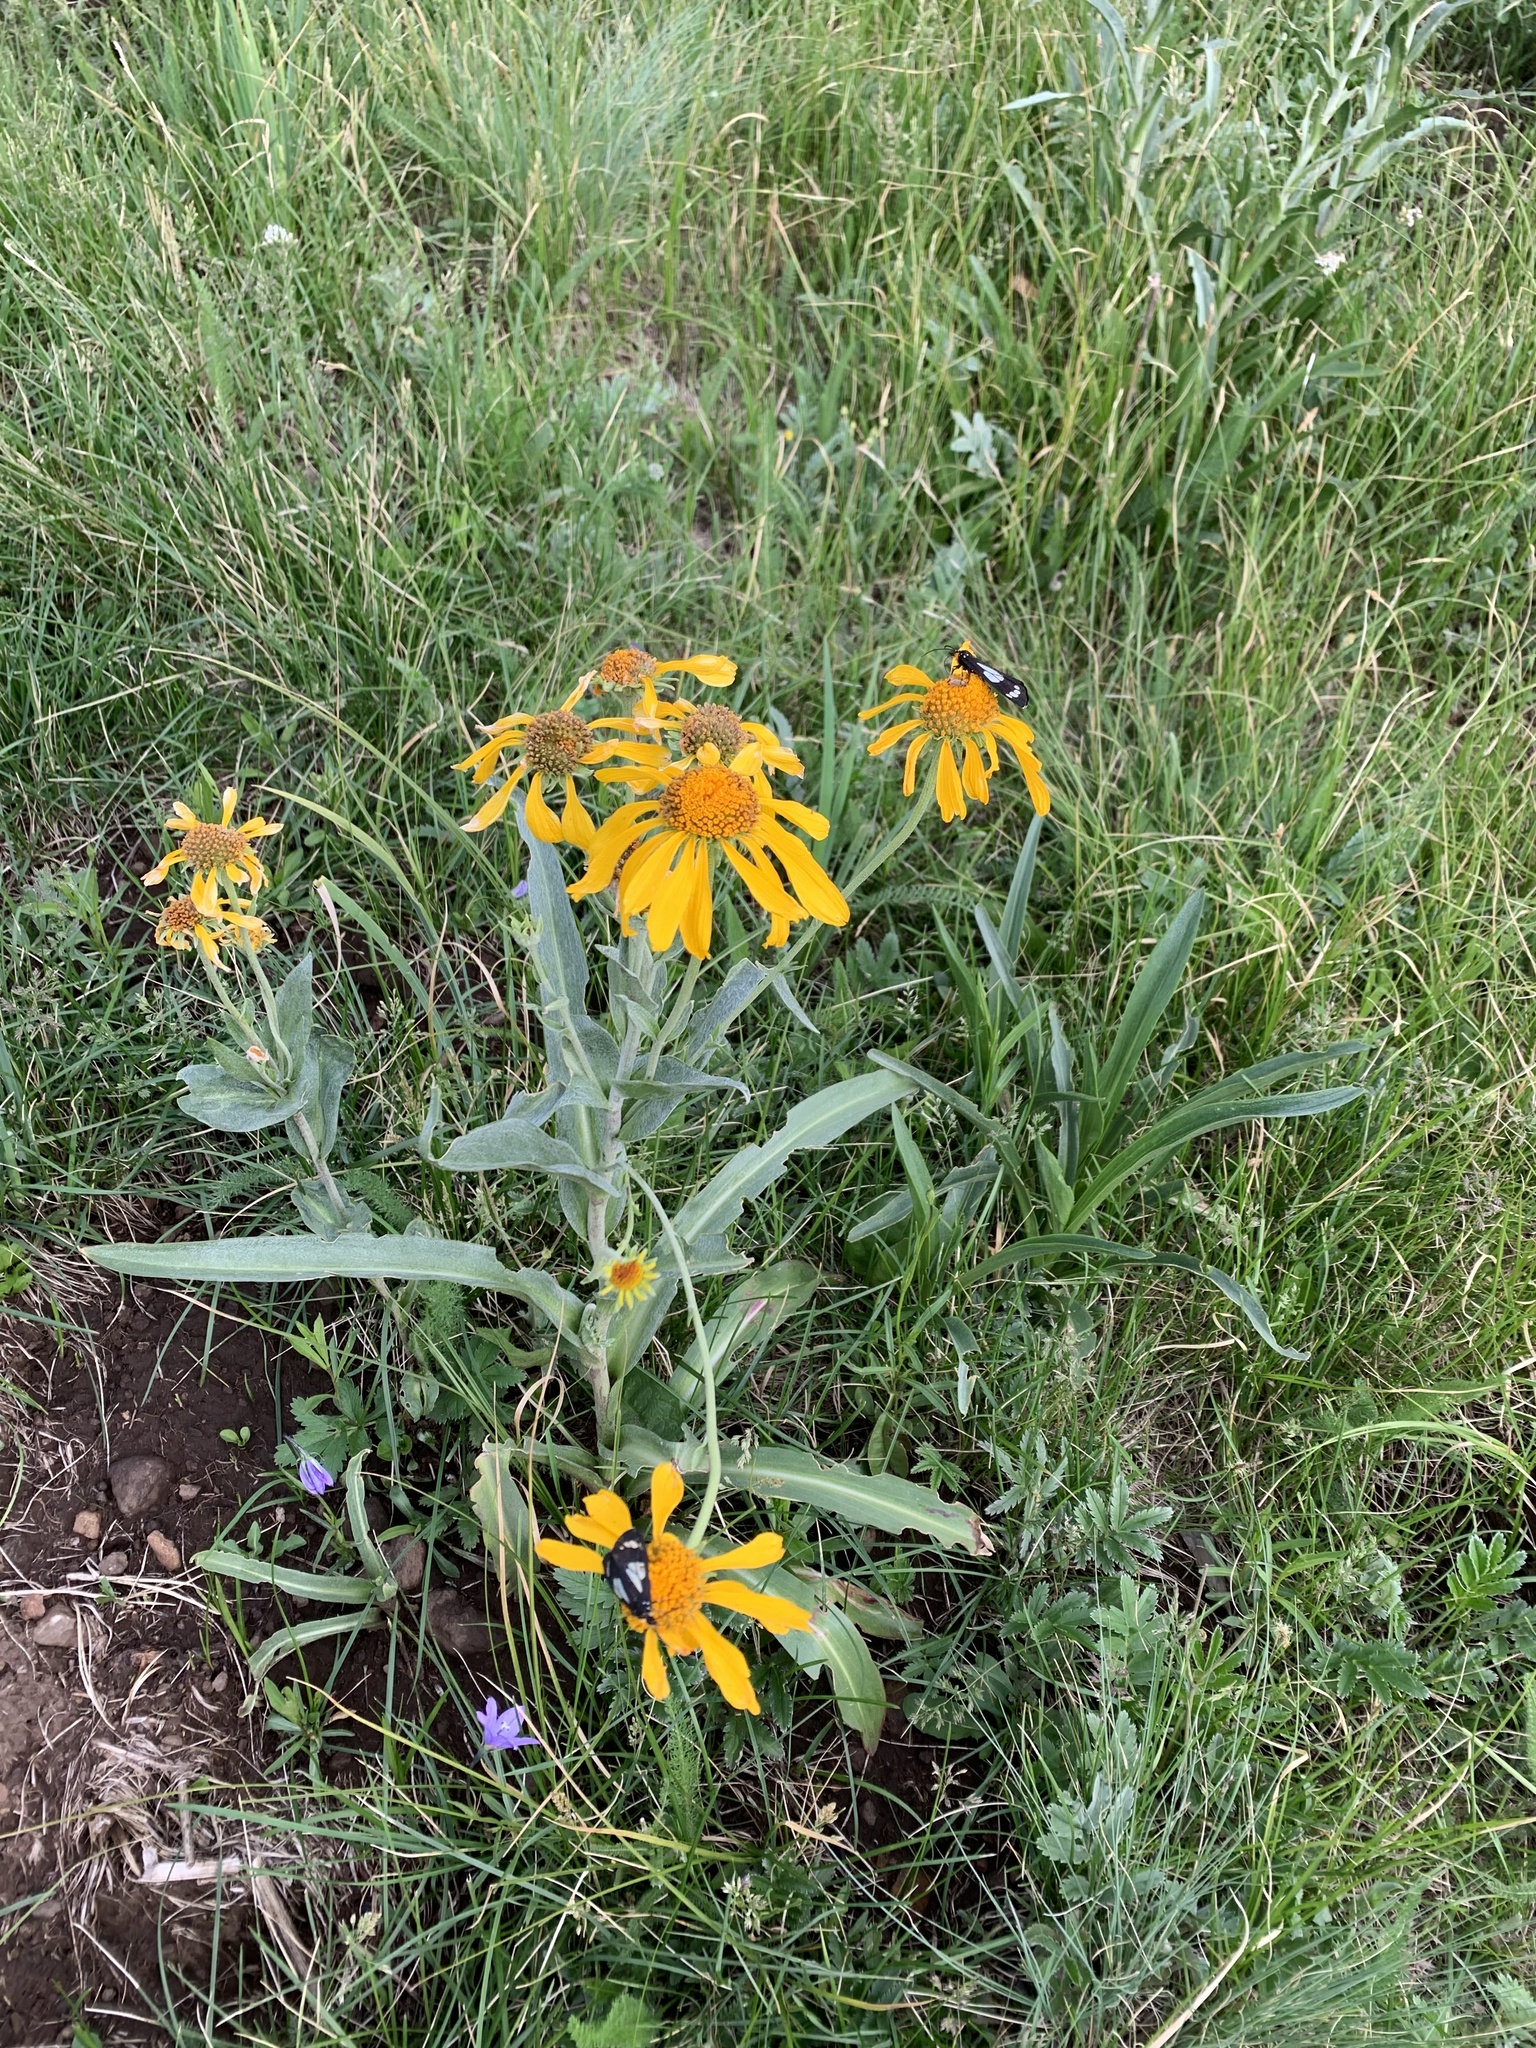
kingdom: Animalia
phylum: Arthropoda
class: Insecta
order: Lepidoptera
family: Erebidae
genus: Gnophaela
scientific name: Gnophaela discreta
